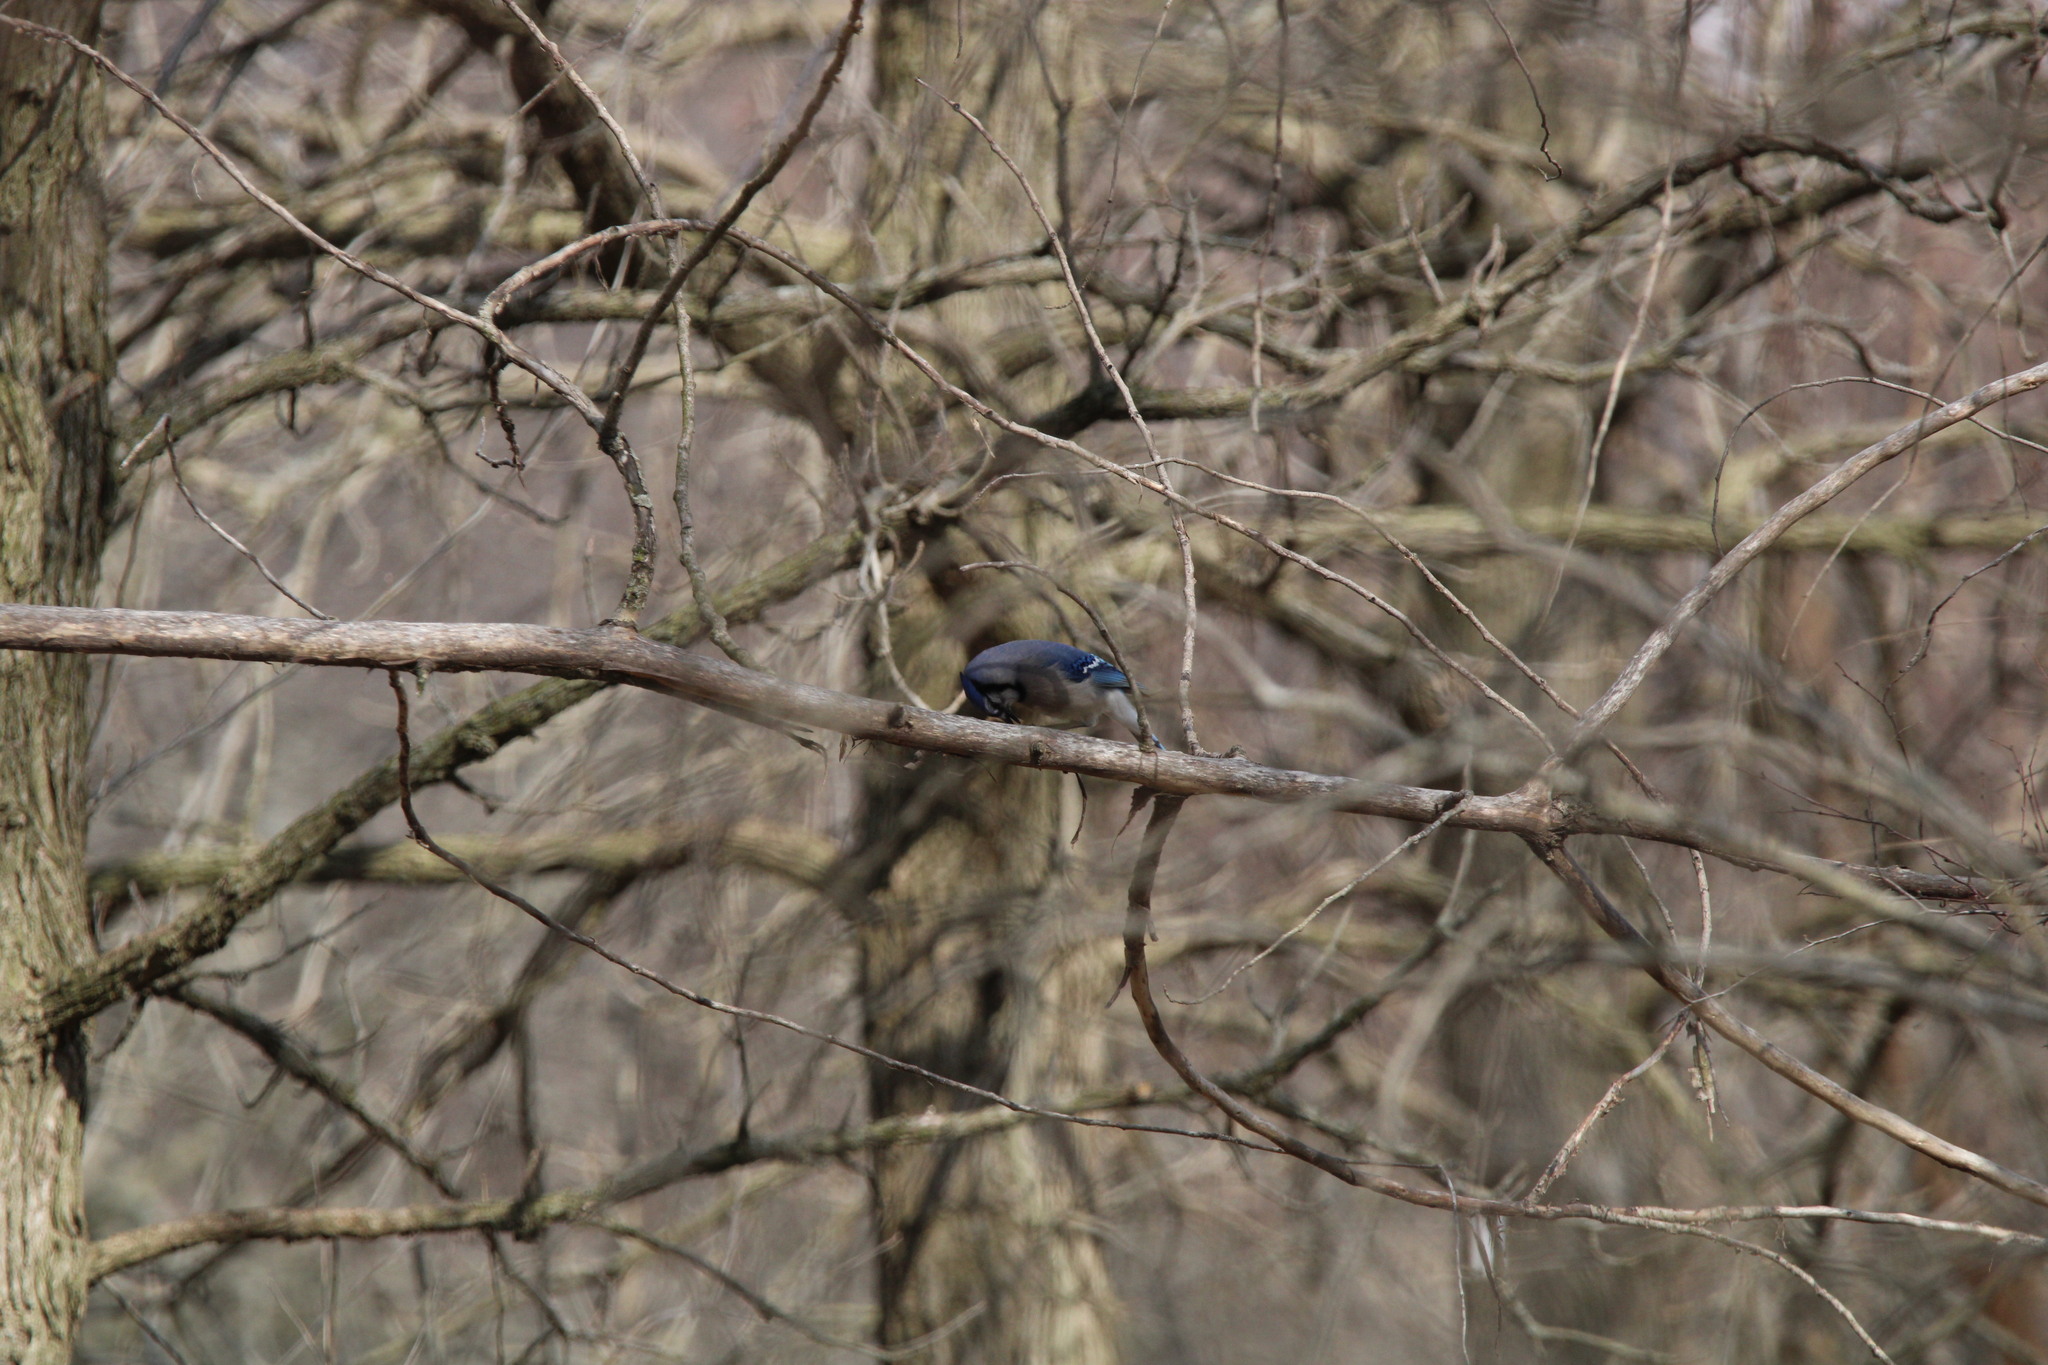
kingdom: Animalia
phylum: Chordata
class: Aves
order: Passeriformes
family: Corvidae
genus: Cyanocitta
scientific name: Cyanocitta cristata
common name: Blue jay
